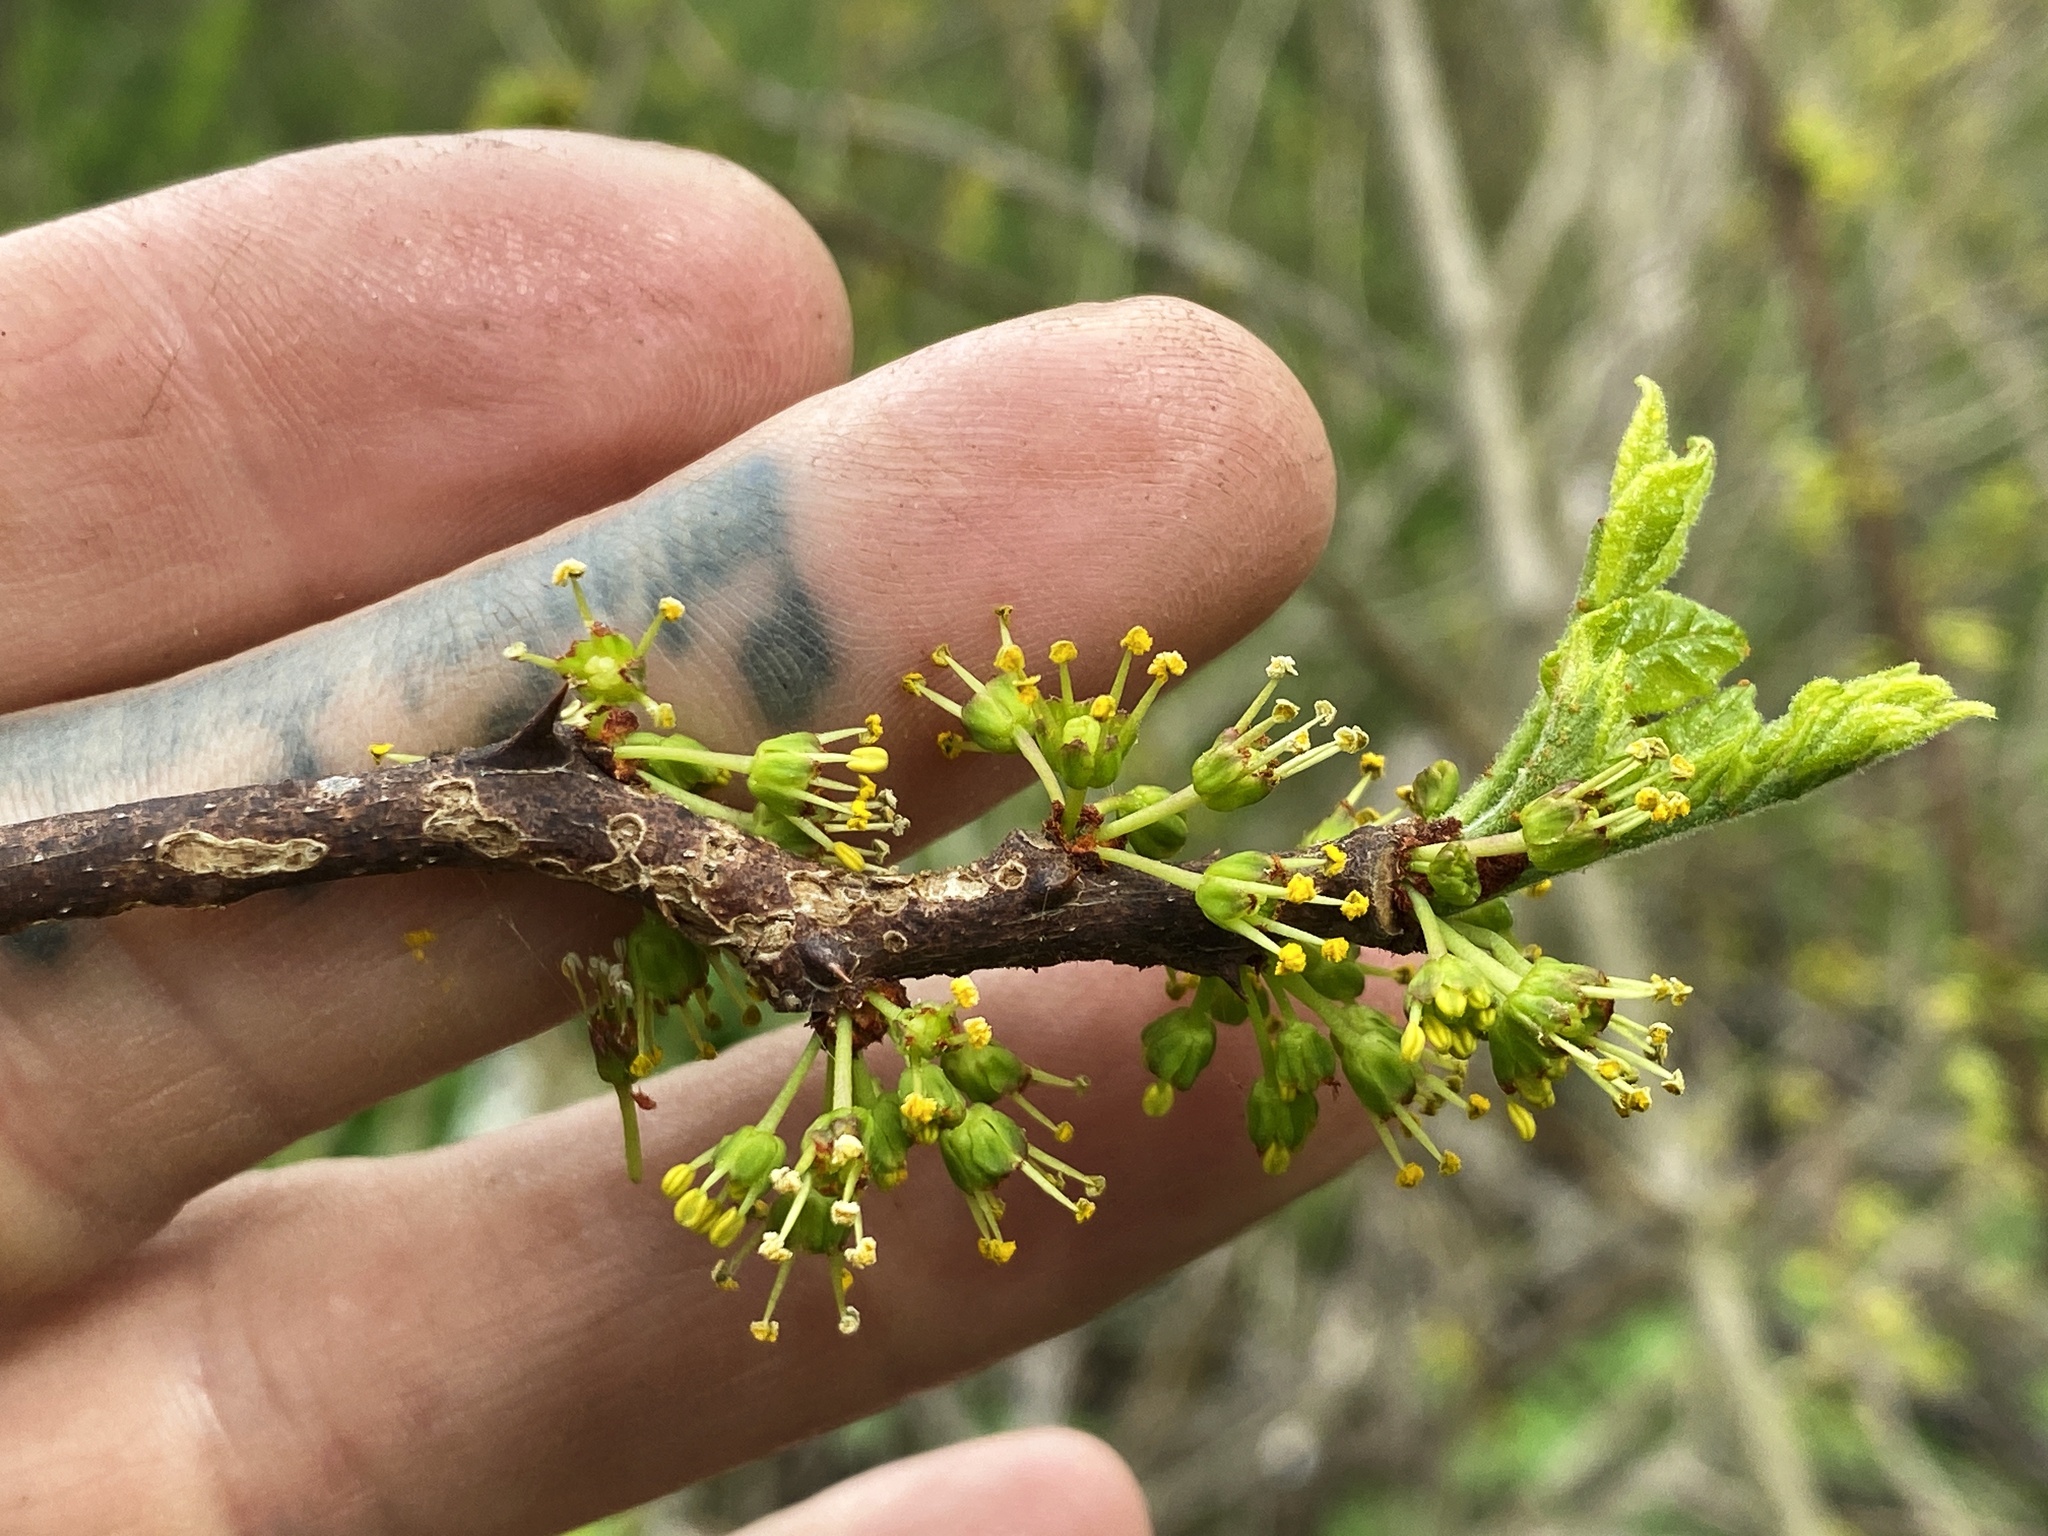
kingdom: Plantae
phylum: Tracheophyta
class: Magnoliopsida
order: Sapindales
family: Rutaceae
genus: Zanthoxylum
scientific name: Zanthoxylum americanum
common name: Northern prickly-ash
